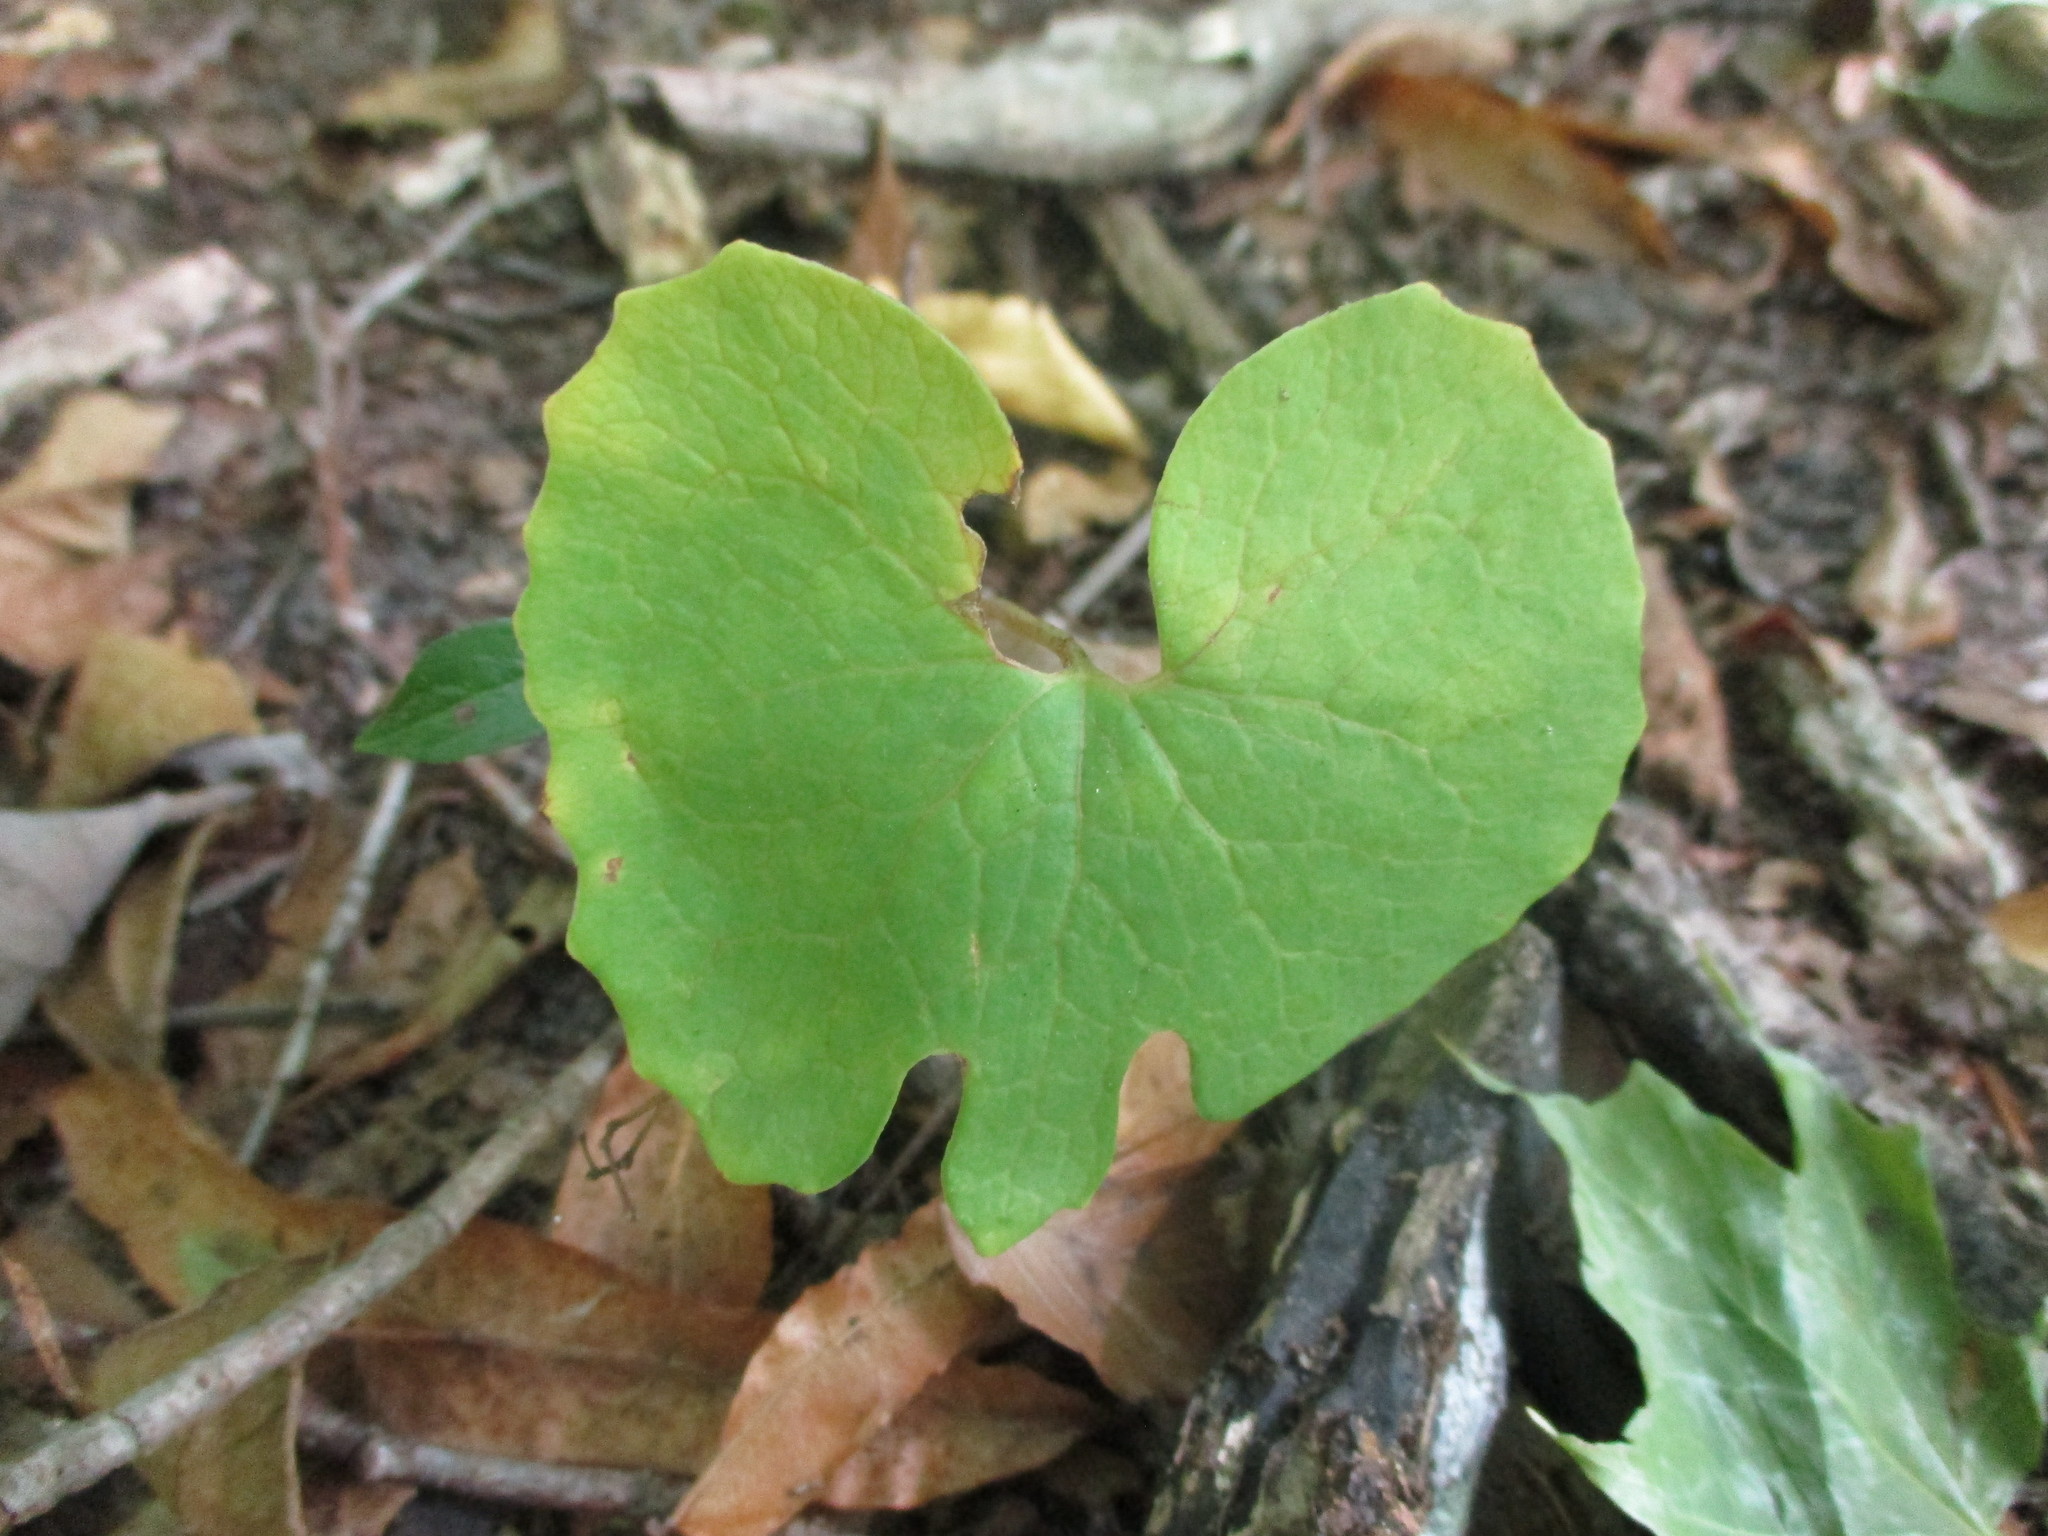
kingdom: Plantae
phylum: Tracheophyta
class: Magnoliopsida
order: Ranunculales
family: Papaveraceae
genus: Sanguinaria
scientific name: Sanguinaria canadensis
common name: Bloodroot
